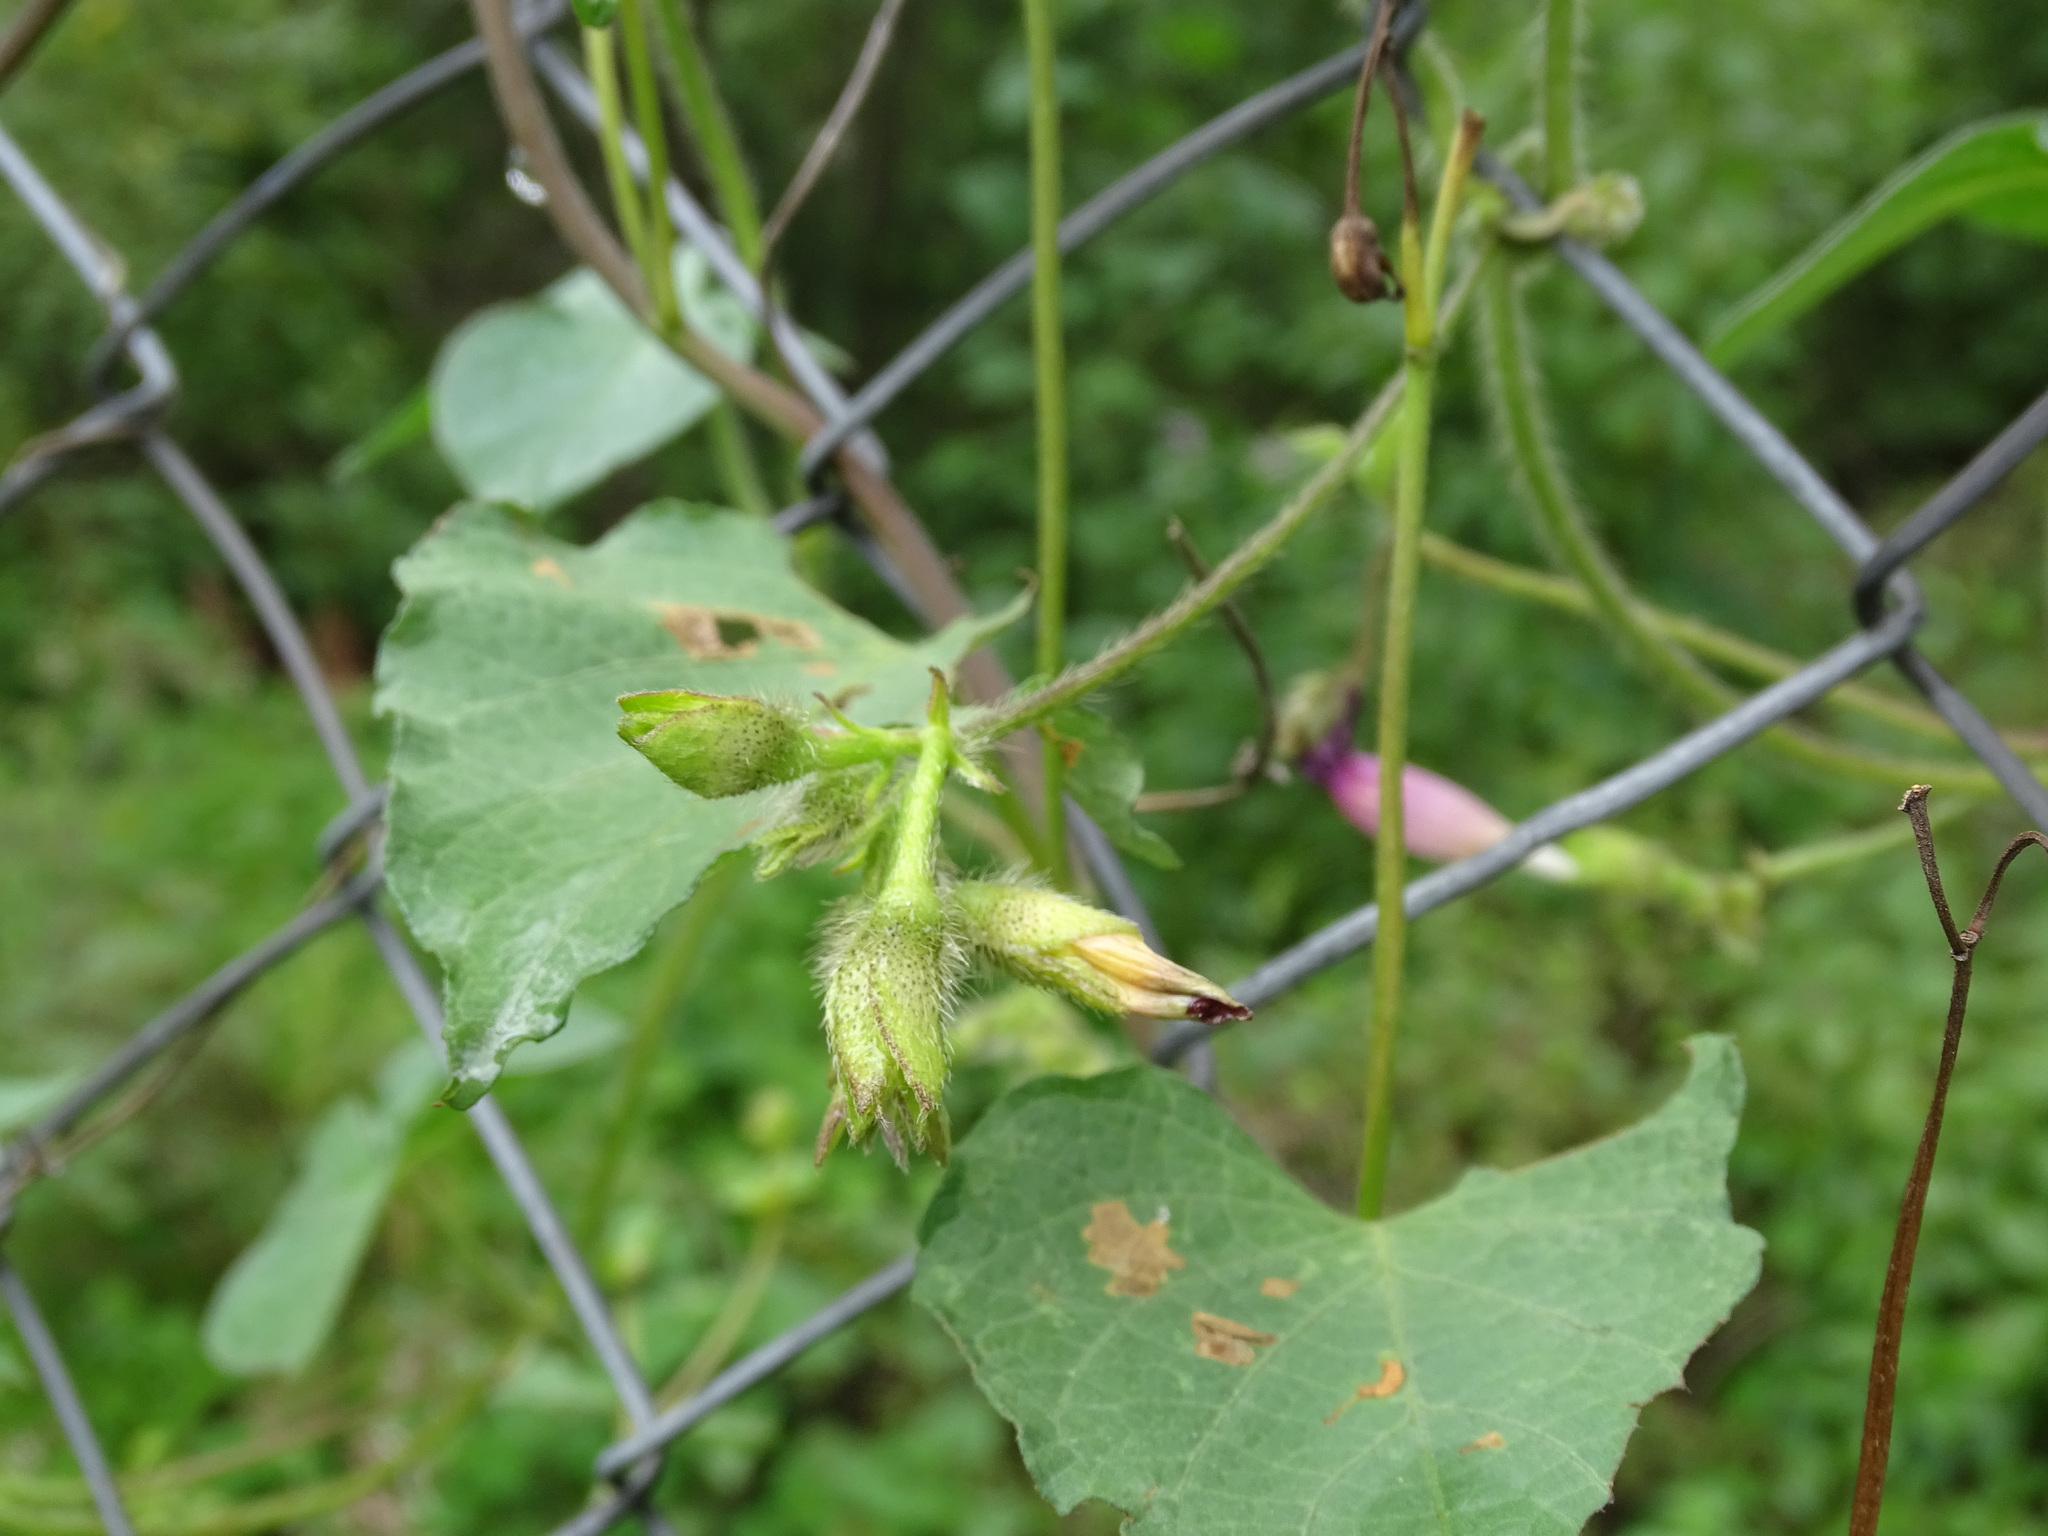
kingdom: Plantae
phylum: Tracheophyta
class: Magnoliopsida
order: Solanales
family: Convolvulaceae
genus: Ipomoea
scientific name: Ipomoea purpurea
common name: Common morning-glory
